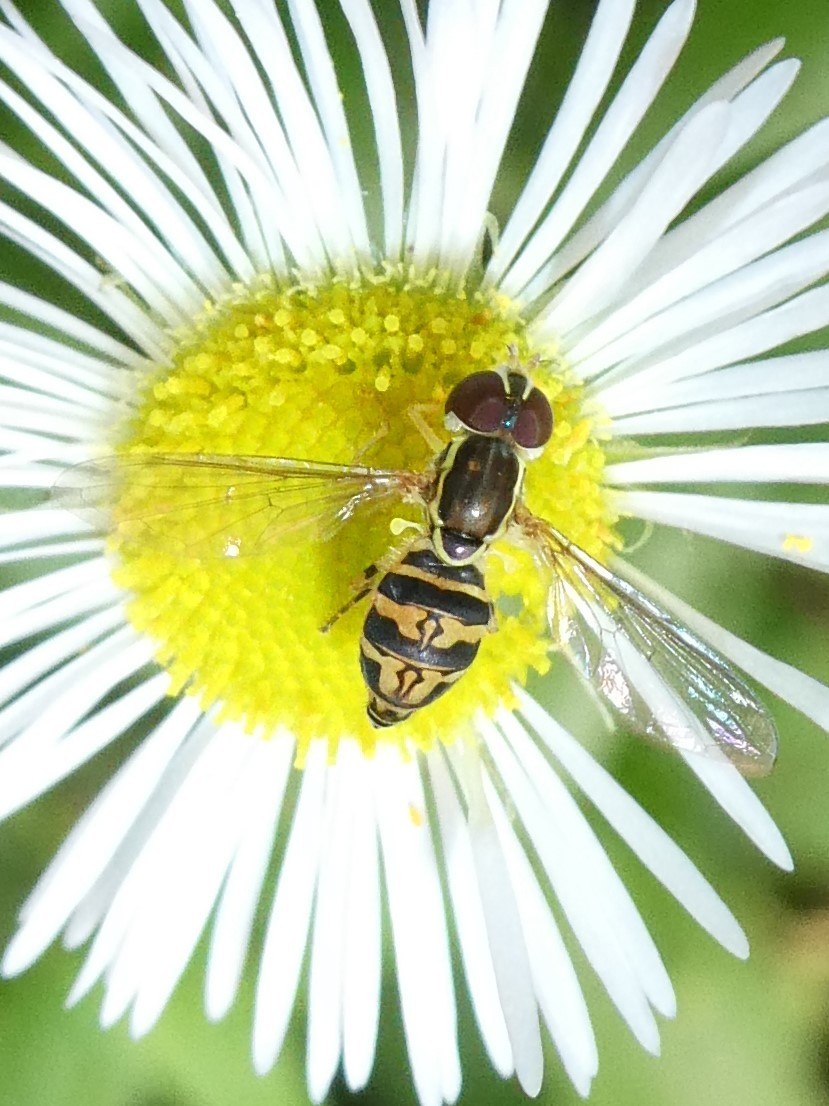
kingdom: Animalia
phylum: Arthropoda
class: Insecta
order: Diptera
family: Syrphidae
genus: Toxomerus
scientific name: Toxomerus geminatus
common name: Eastern calligrapher
